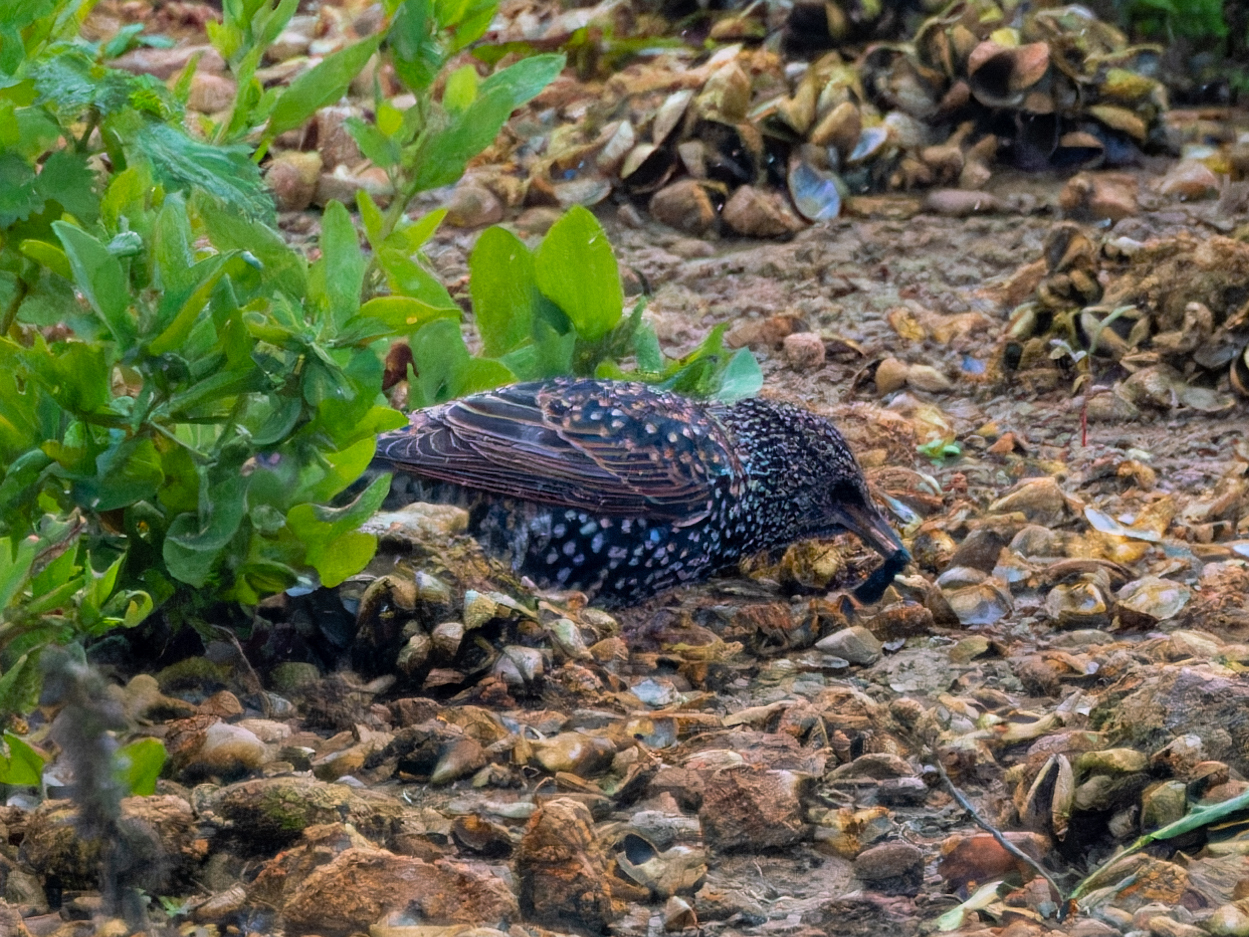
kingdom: Animalia
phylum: Chordata
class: Aves
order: Passeriformes
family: Sturnidae
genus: Sturnus
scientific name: Sturnus vulgaris
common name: Common starling
